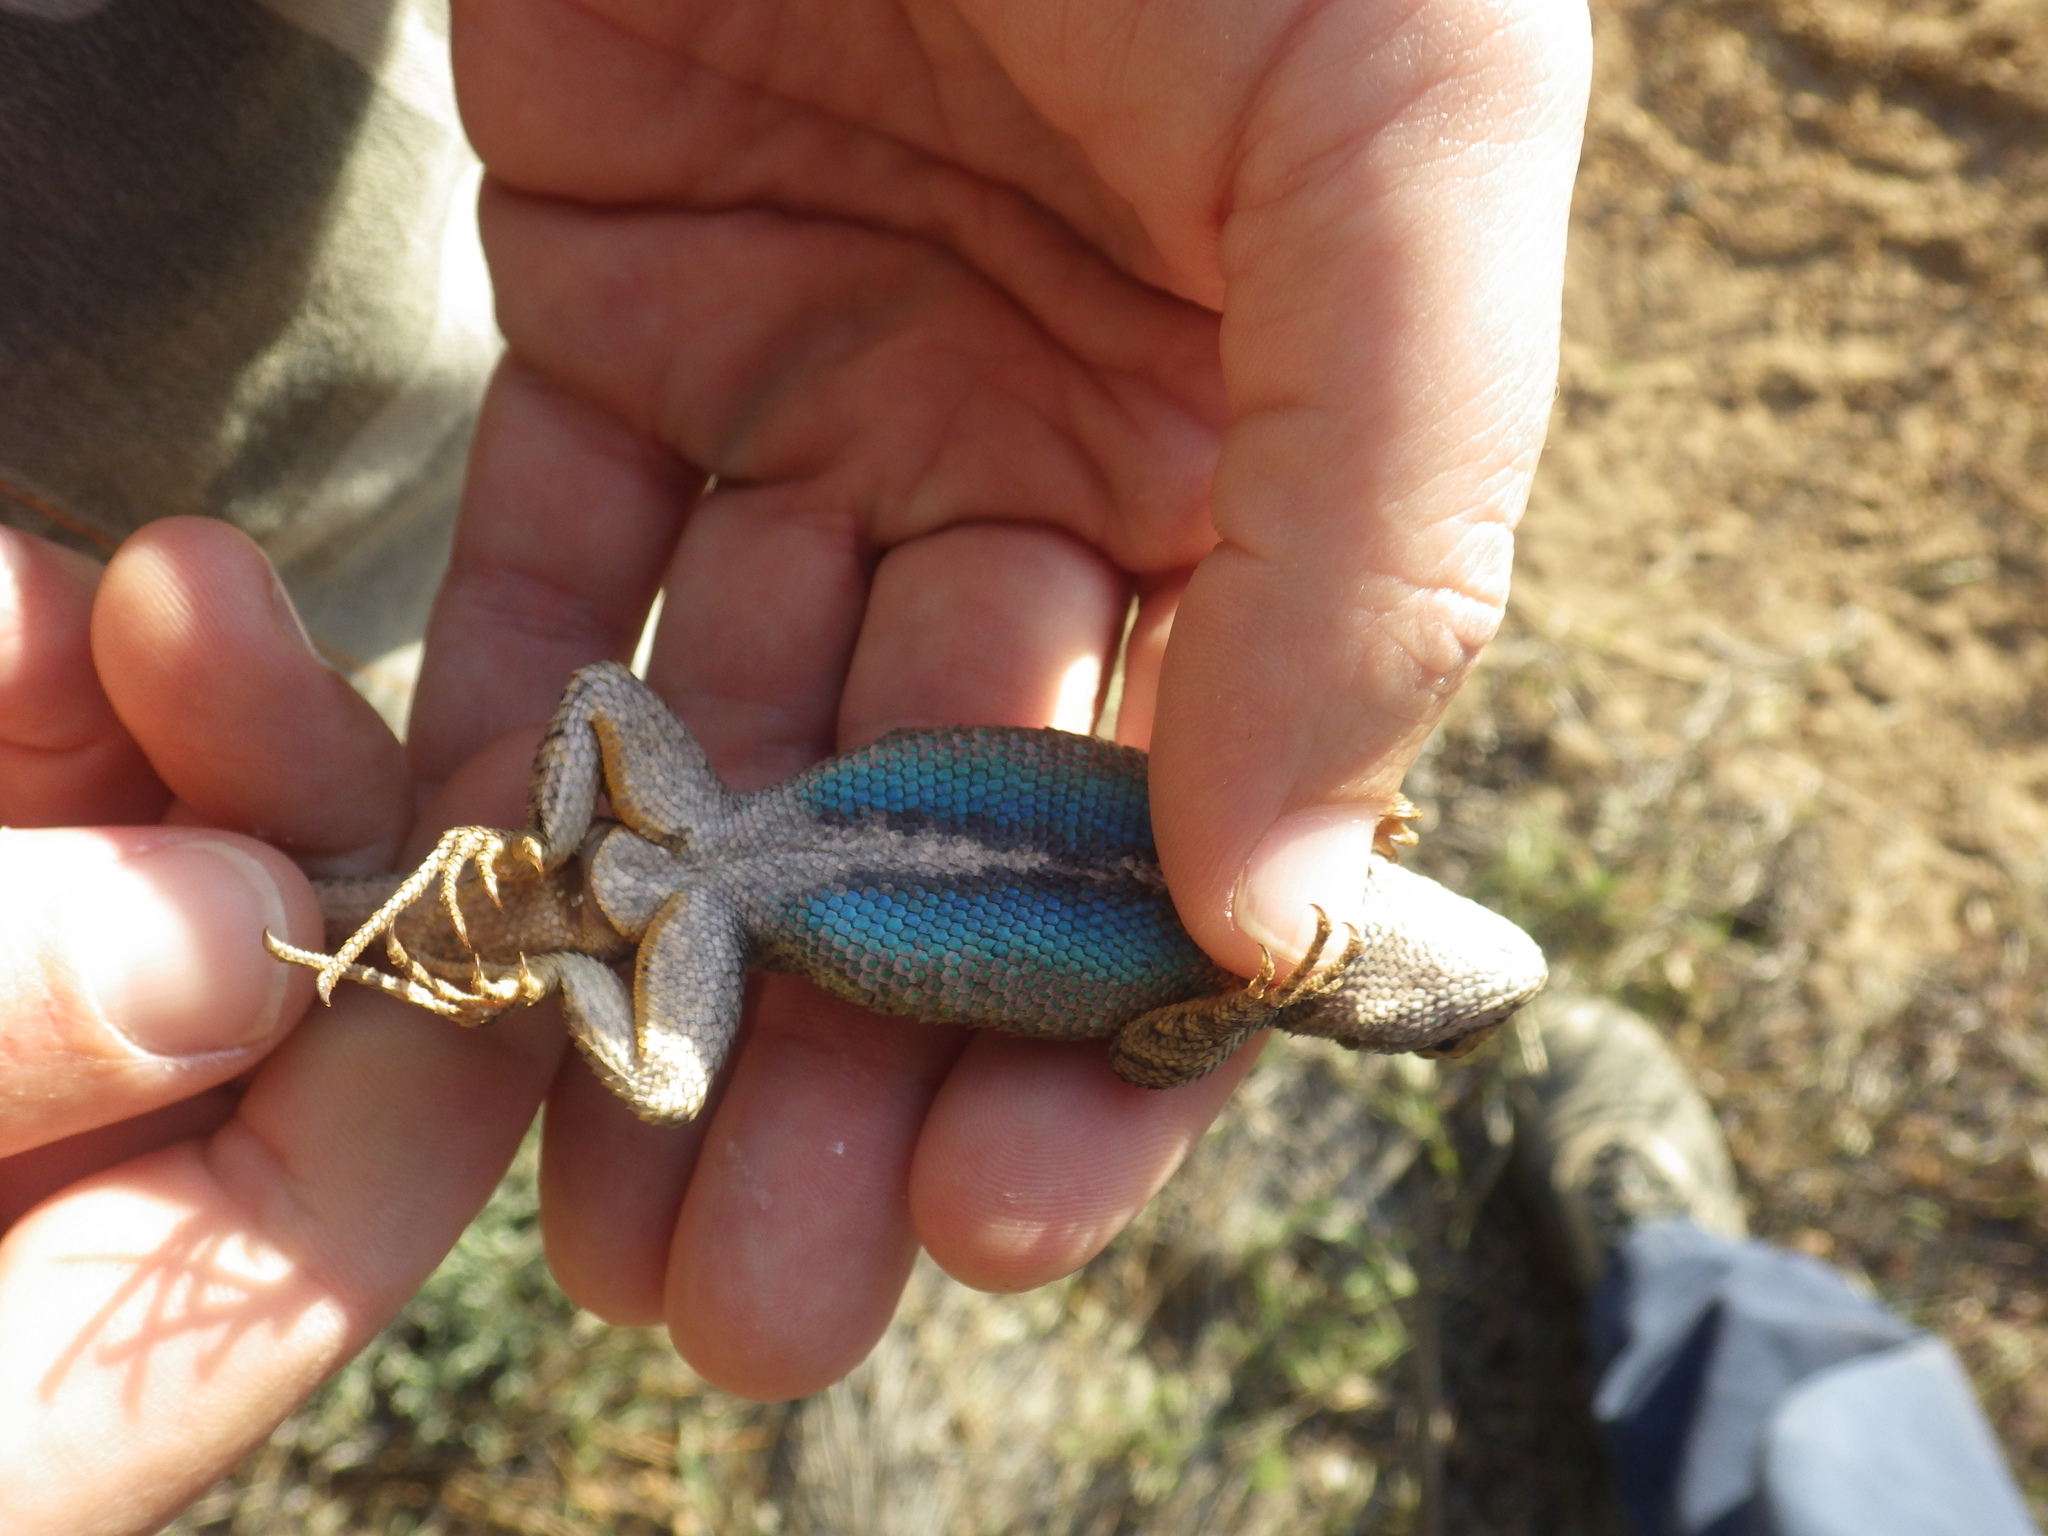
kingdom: Animalia
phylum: Chordata
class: Squamata
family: Phrynosomatidae
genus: Sceloporus
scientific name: Sceloporus occidentalis
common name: Western fence lizard
